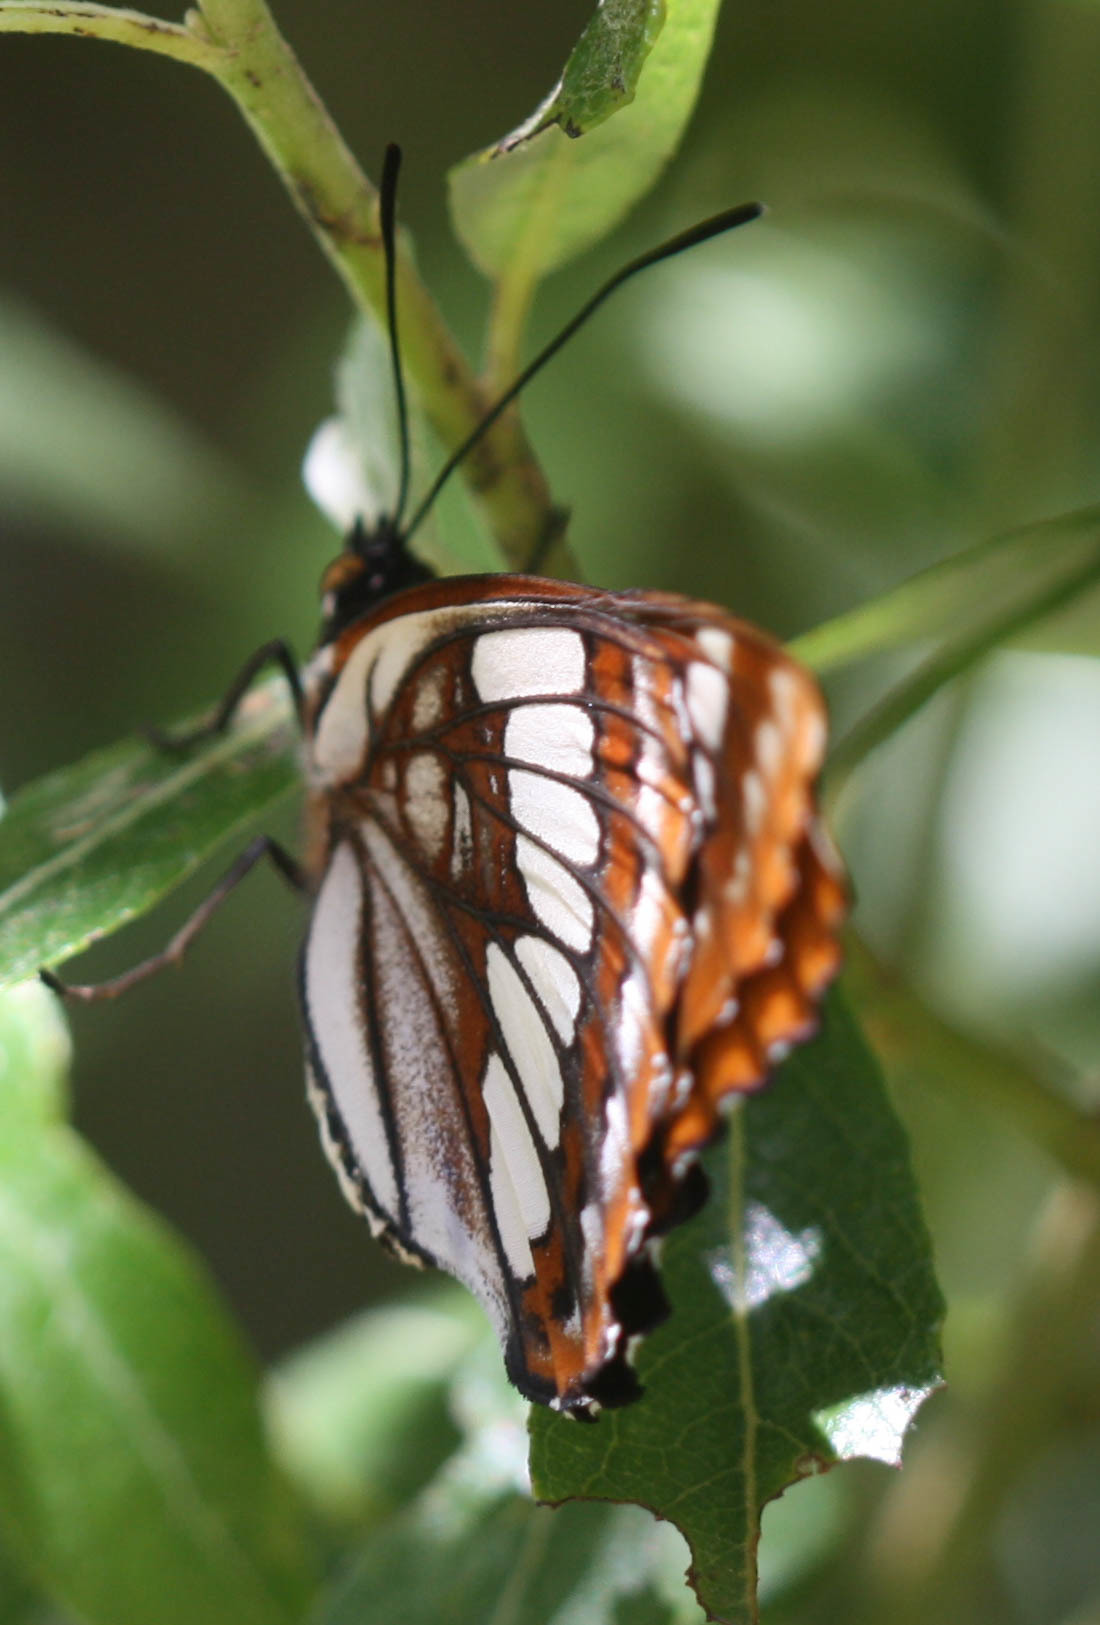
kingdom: Animalia
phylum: Arthropoda
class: Insecta
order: Lepidoptera
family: Nymphalidae
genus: Limenitis
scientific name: Limenitis lorquini
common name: Lorquin's admiral
